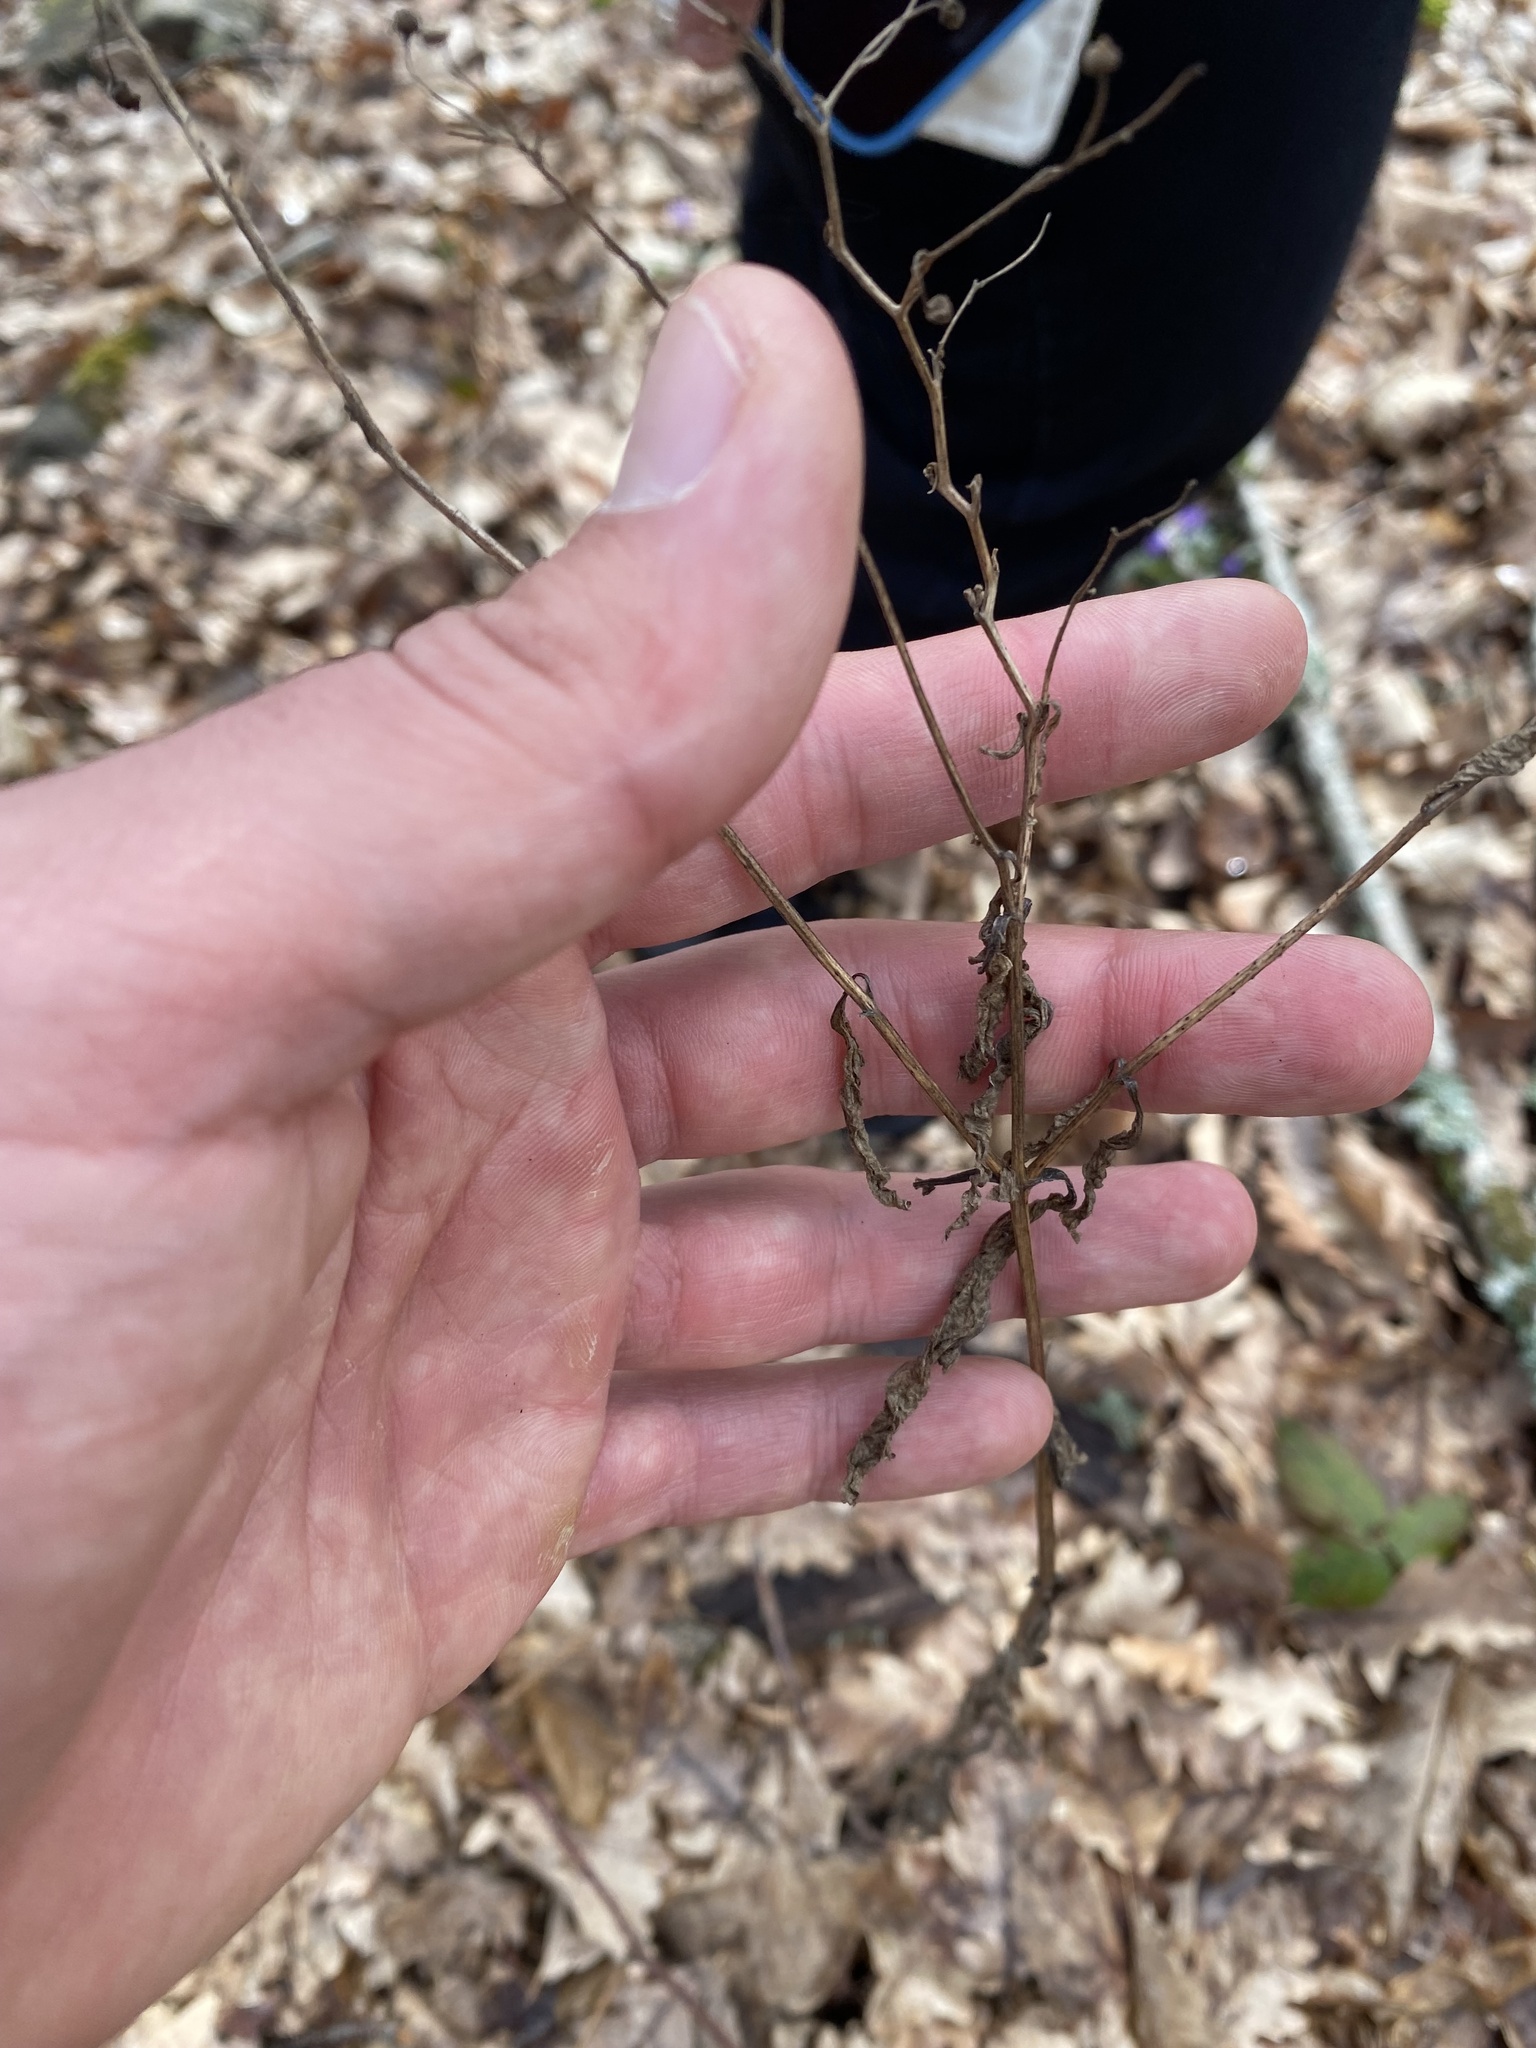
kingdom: Plantae
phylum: Tracheophyta
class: Magnoliopsida
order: Lamiales
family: Scrophulariaceae
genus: Scrophularia
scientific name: Scrophularia nodosa
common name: Common figwort
